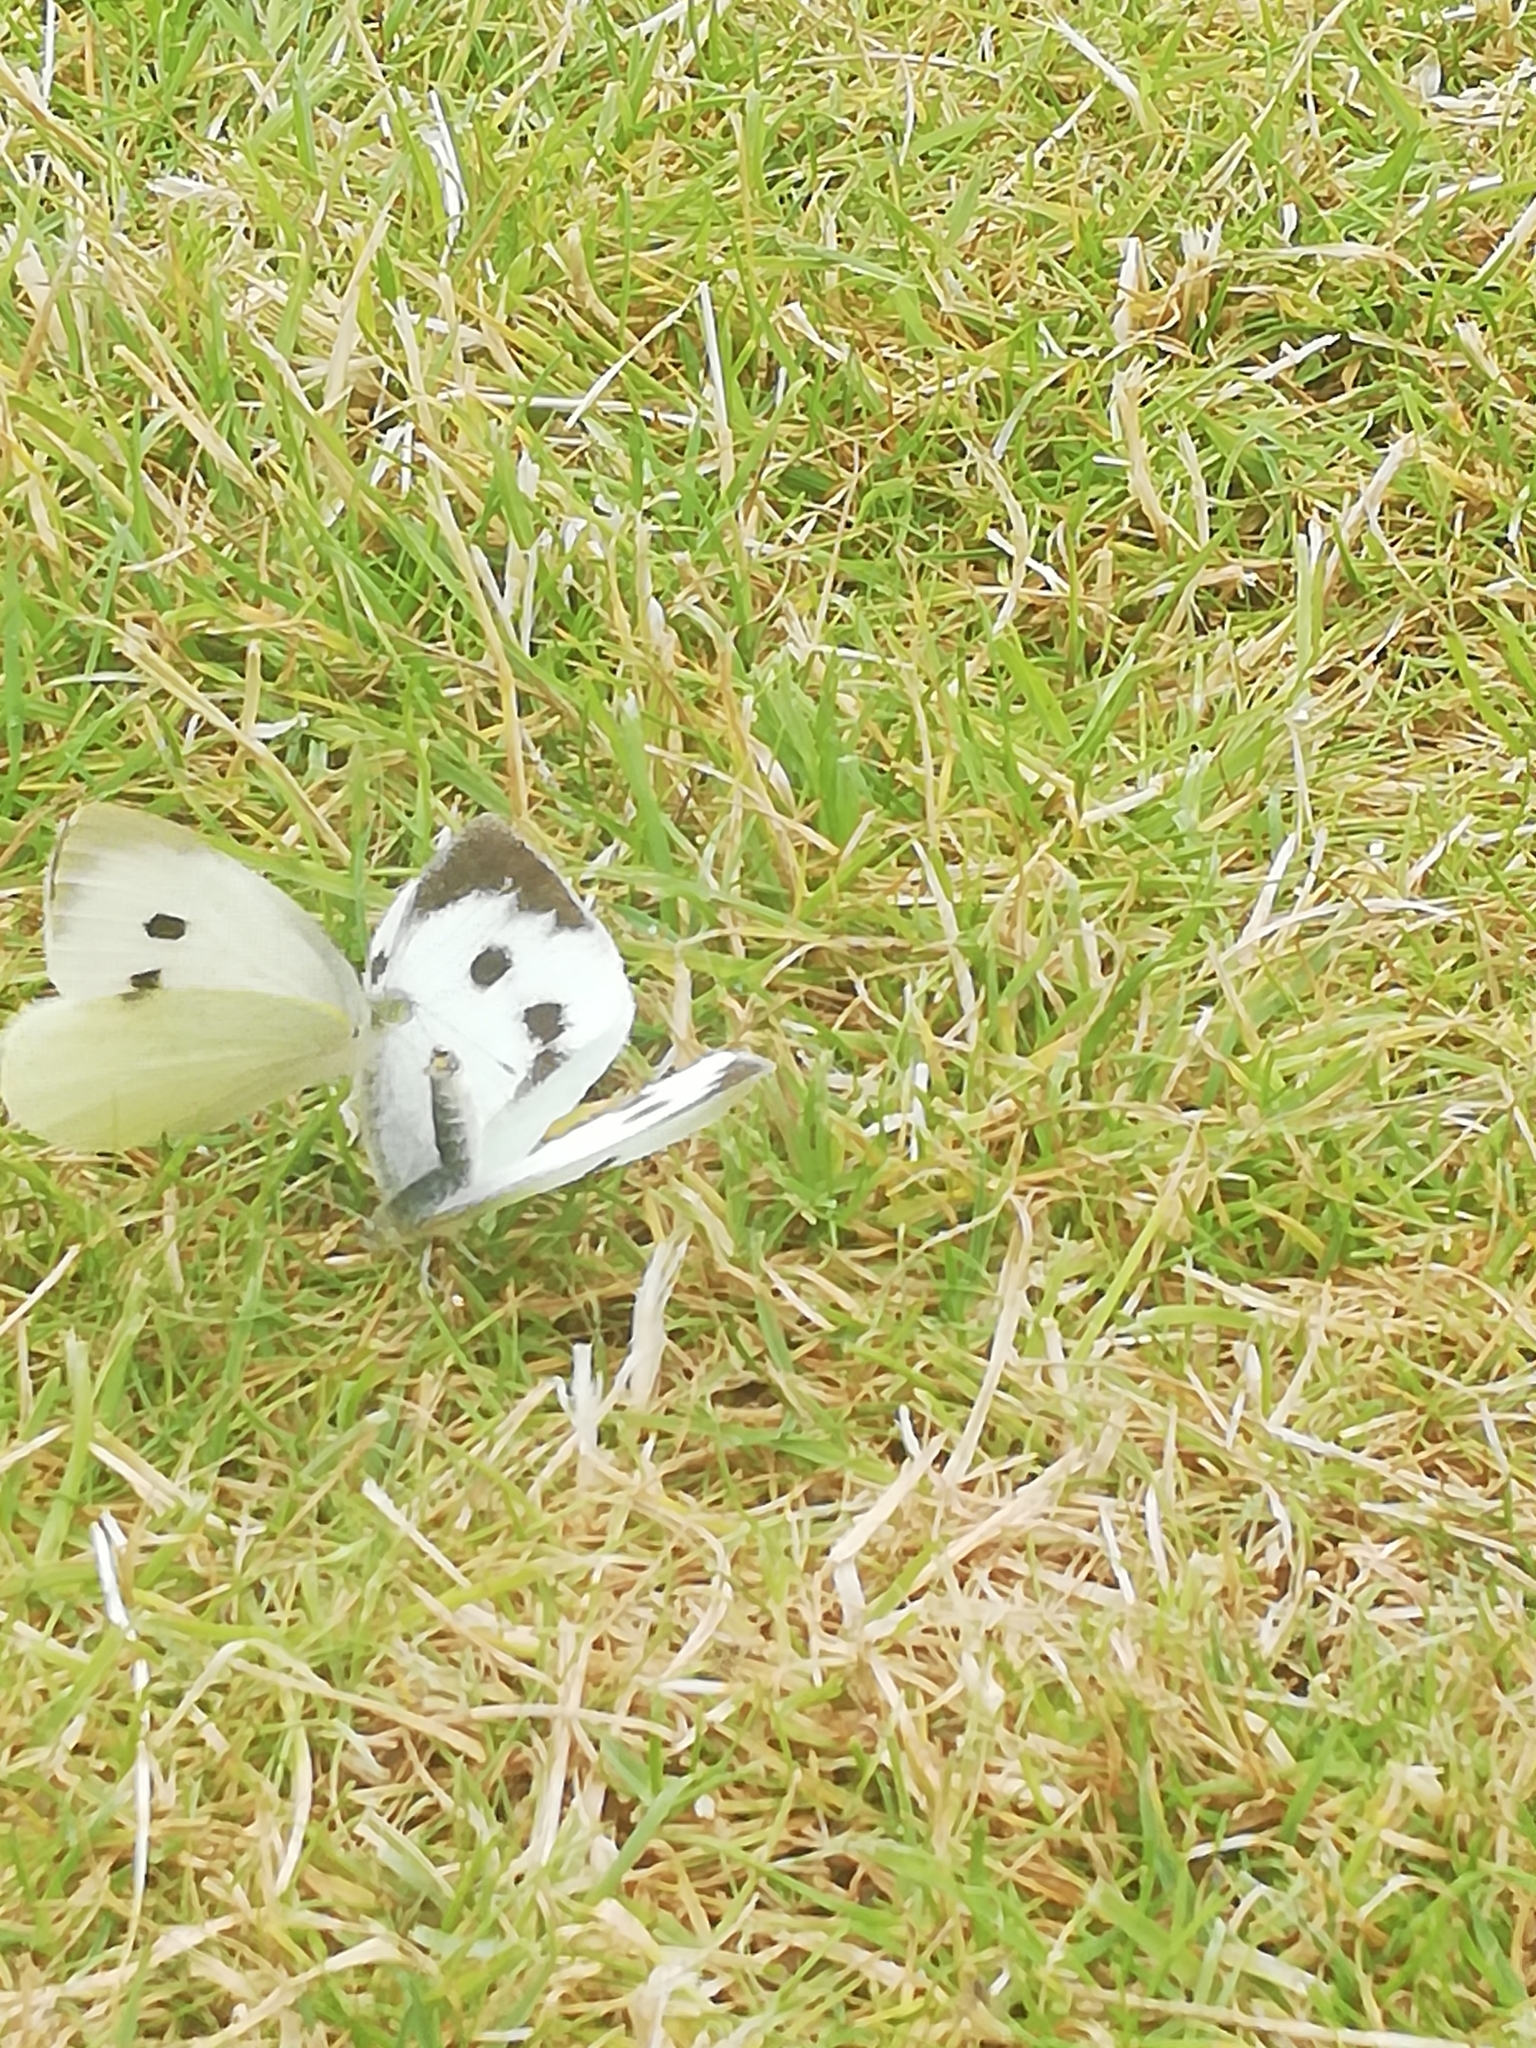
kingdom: Animalia
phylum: Arthropoda
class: Insecta
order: Lepidoptera
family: Pieridae
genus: Pieris
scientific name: Pieris brassicae
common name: Large white
